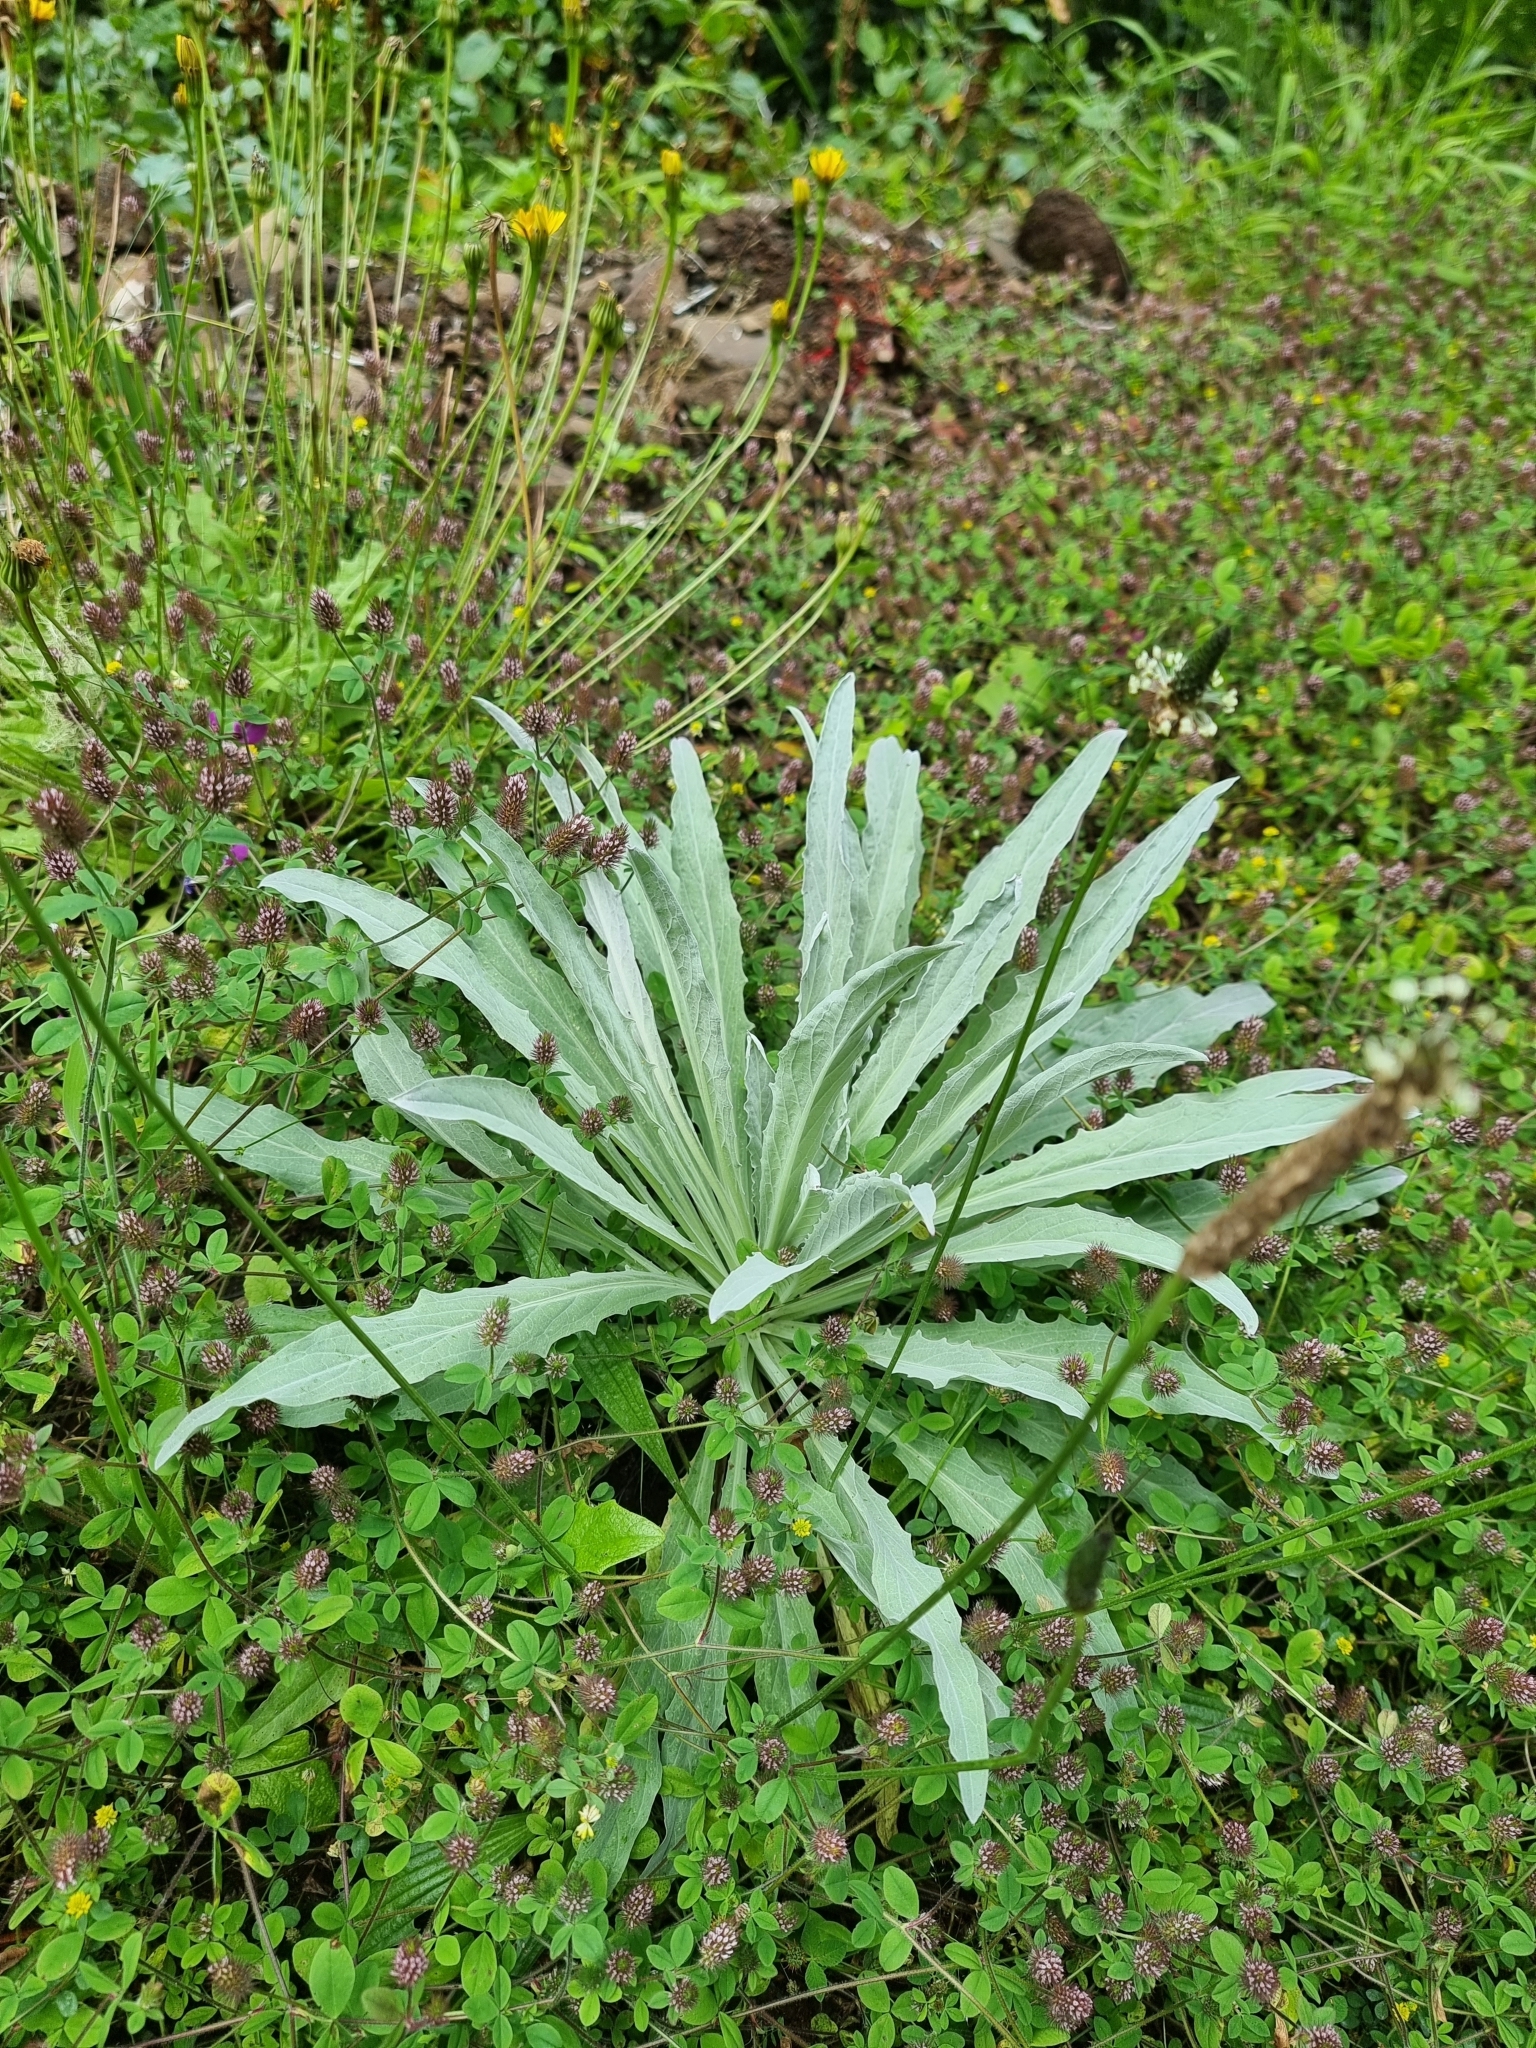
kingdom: Plantae
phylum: Tracheophyta
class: Magnoliopsida
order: Asterales
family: Asteraceae
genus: Andryala
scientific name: Andryala glandulosa
